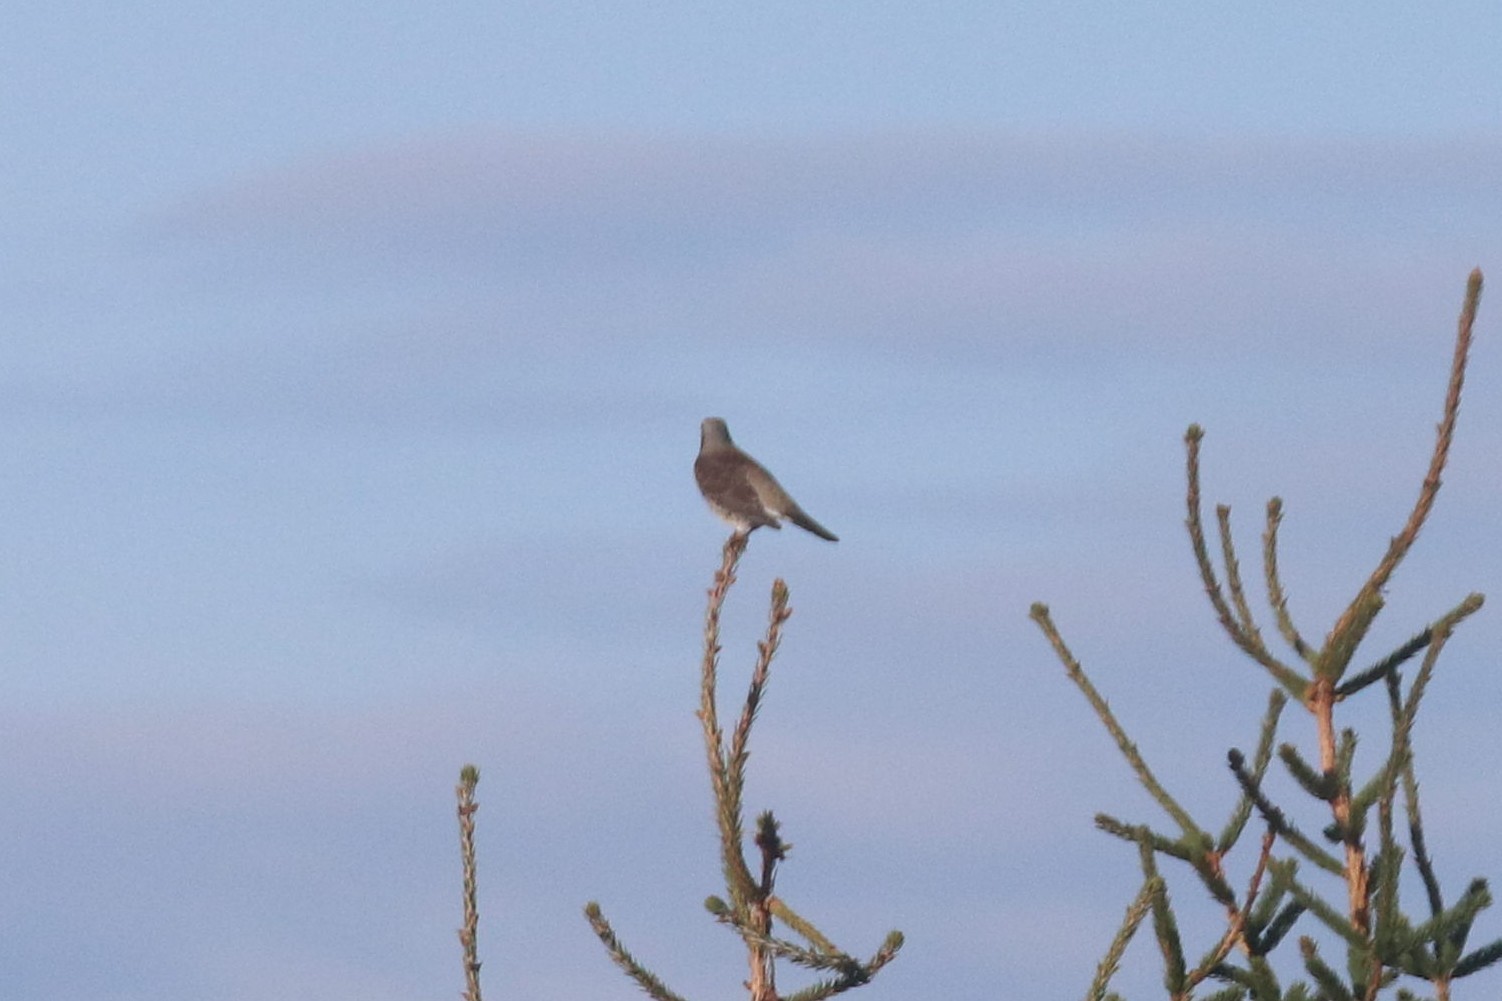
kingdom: Animalia
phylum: Chordata
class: Aves
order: Passeriformes
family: Turdidae
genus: Turdus
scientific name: Turdus pilaris
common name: Fieldfare
